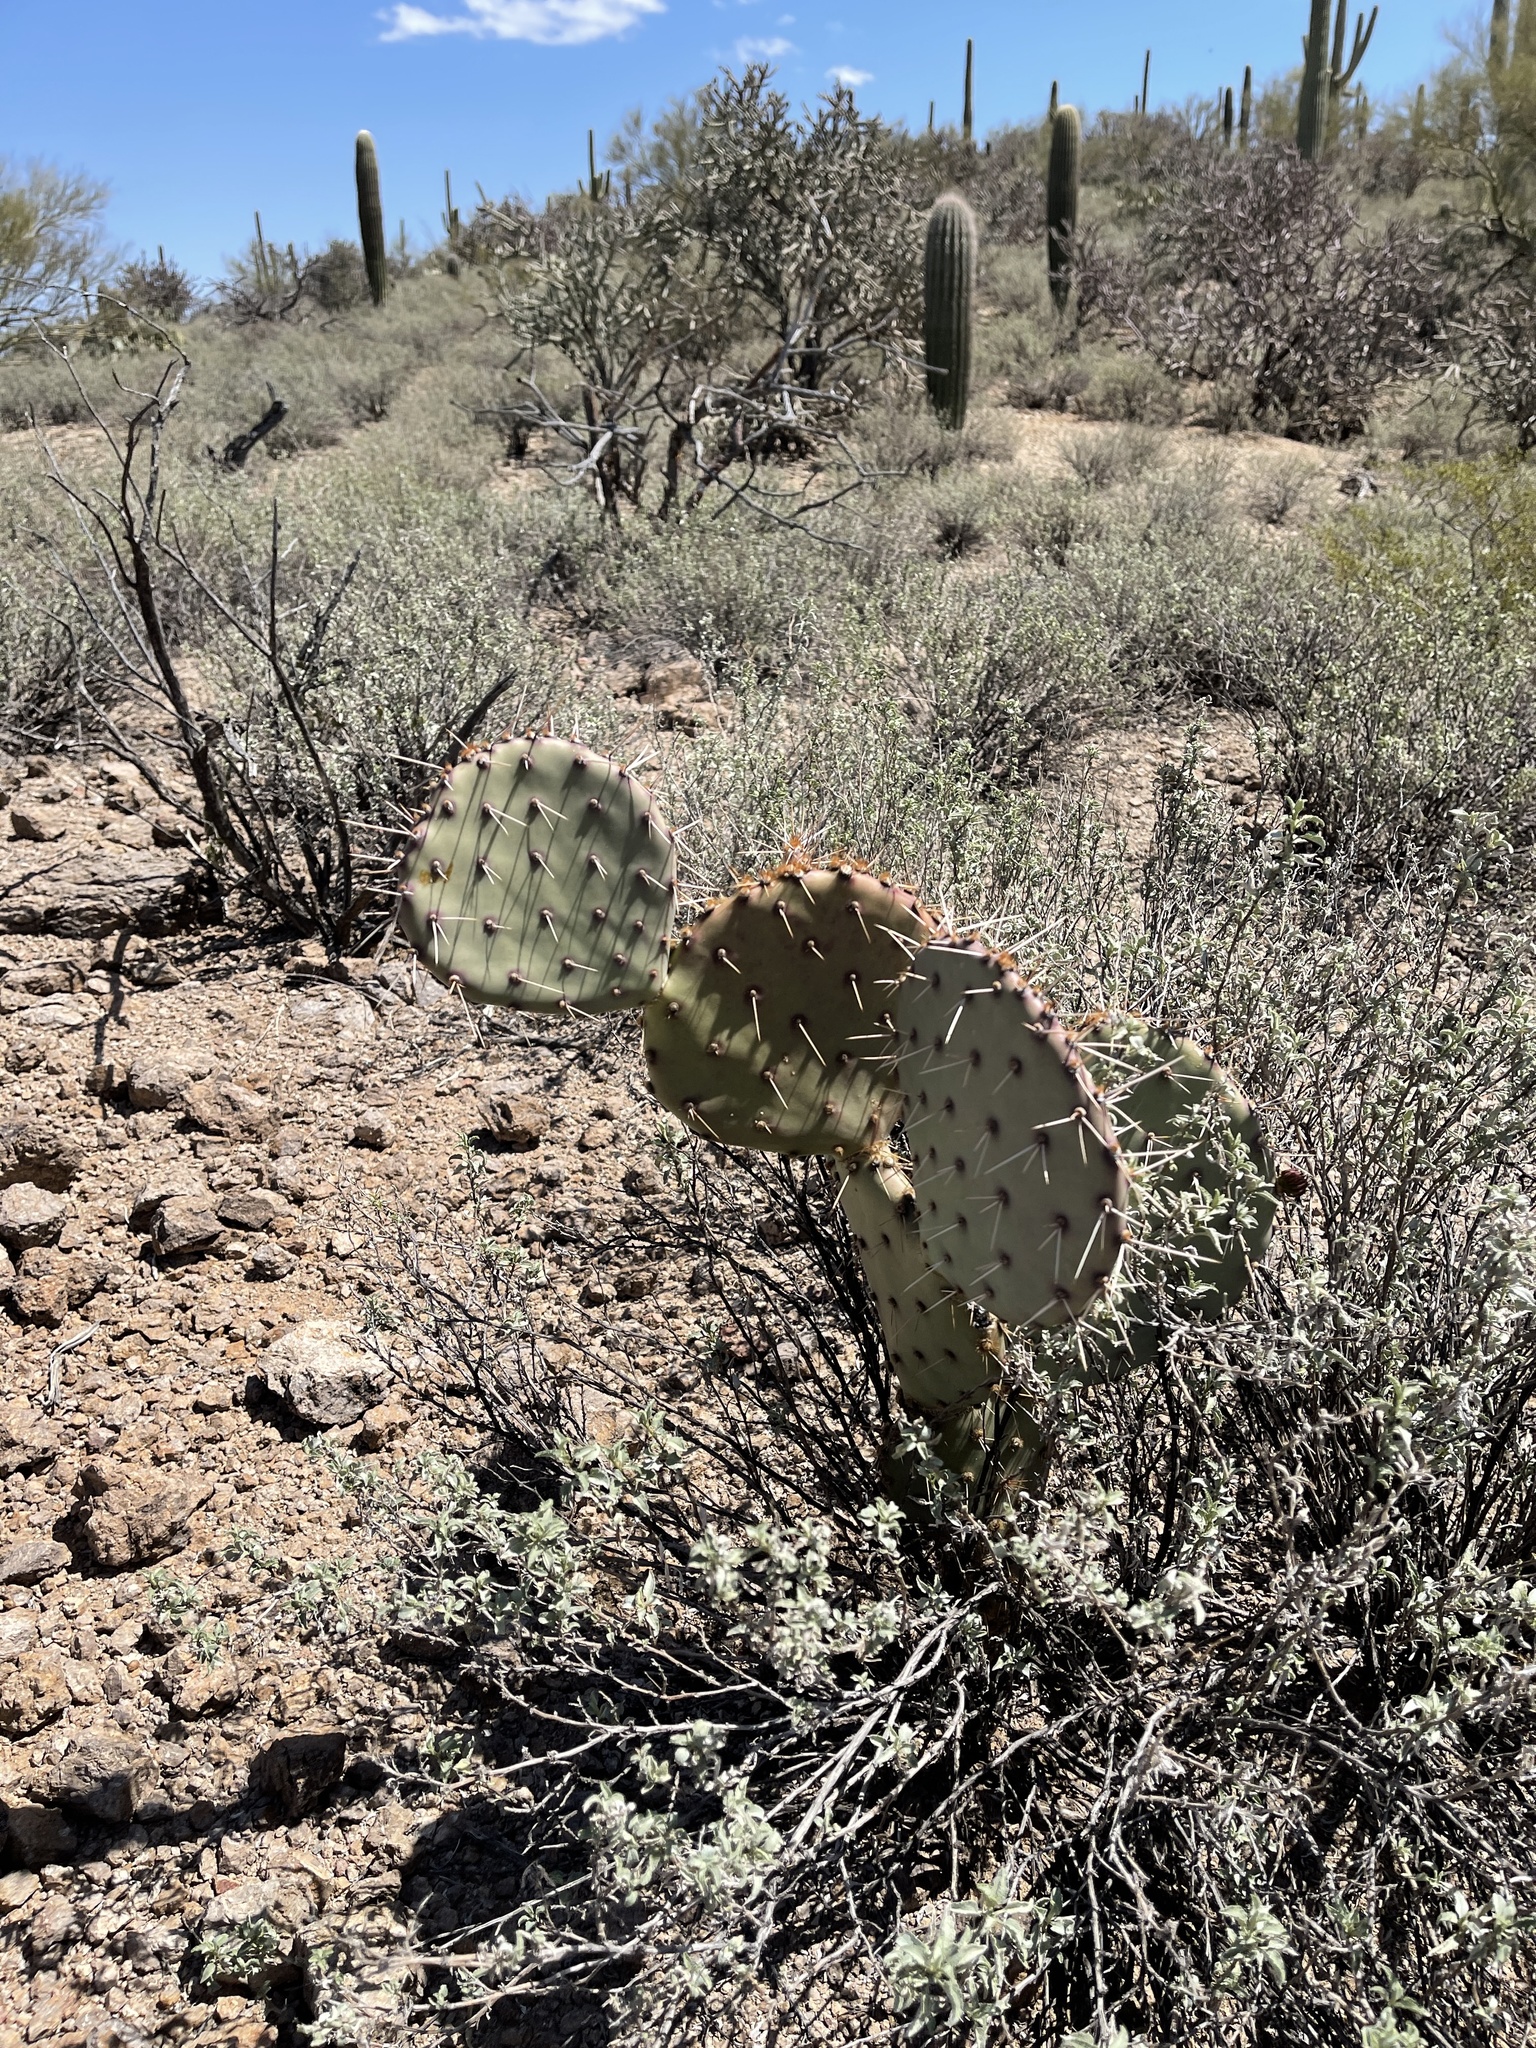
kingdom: Plantae
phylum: Tracheophyta
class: Magnoliopsida
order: Caryophyllales
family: Cactaceae
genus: Opuntia
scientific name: Opuntia engelmannii
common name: Cactus-apple
